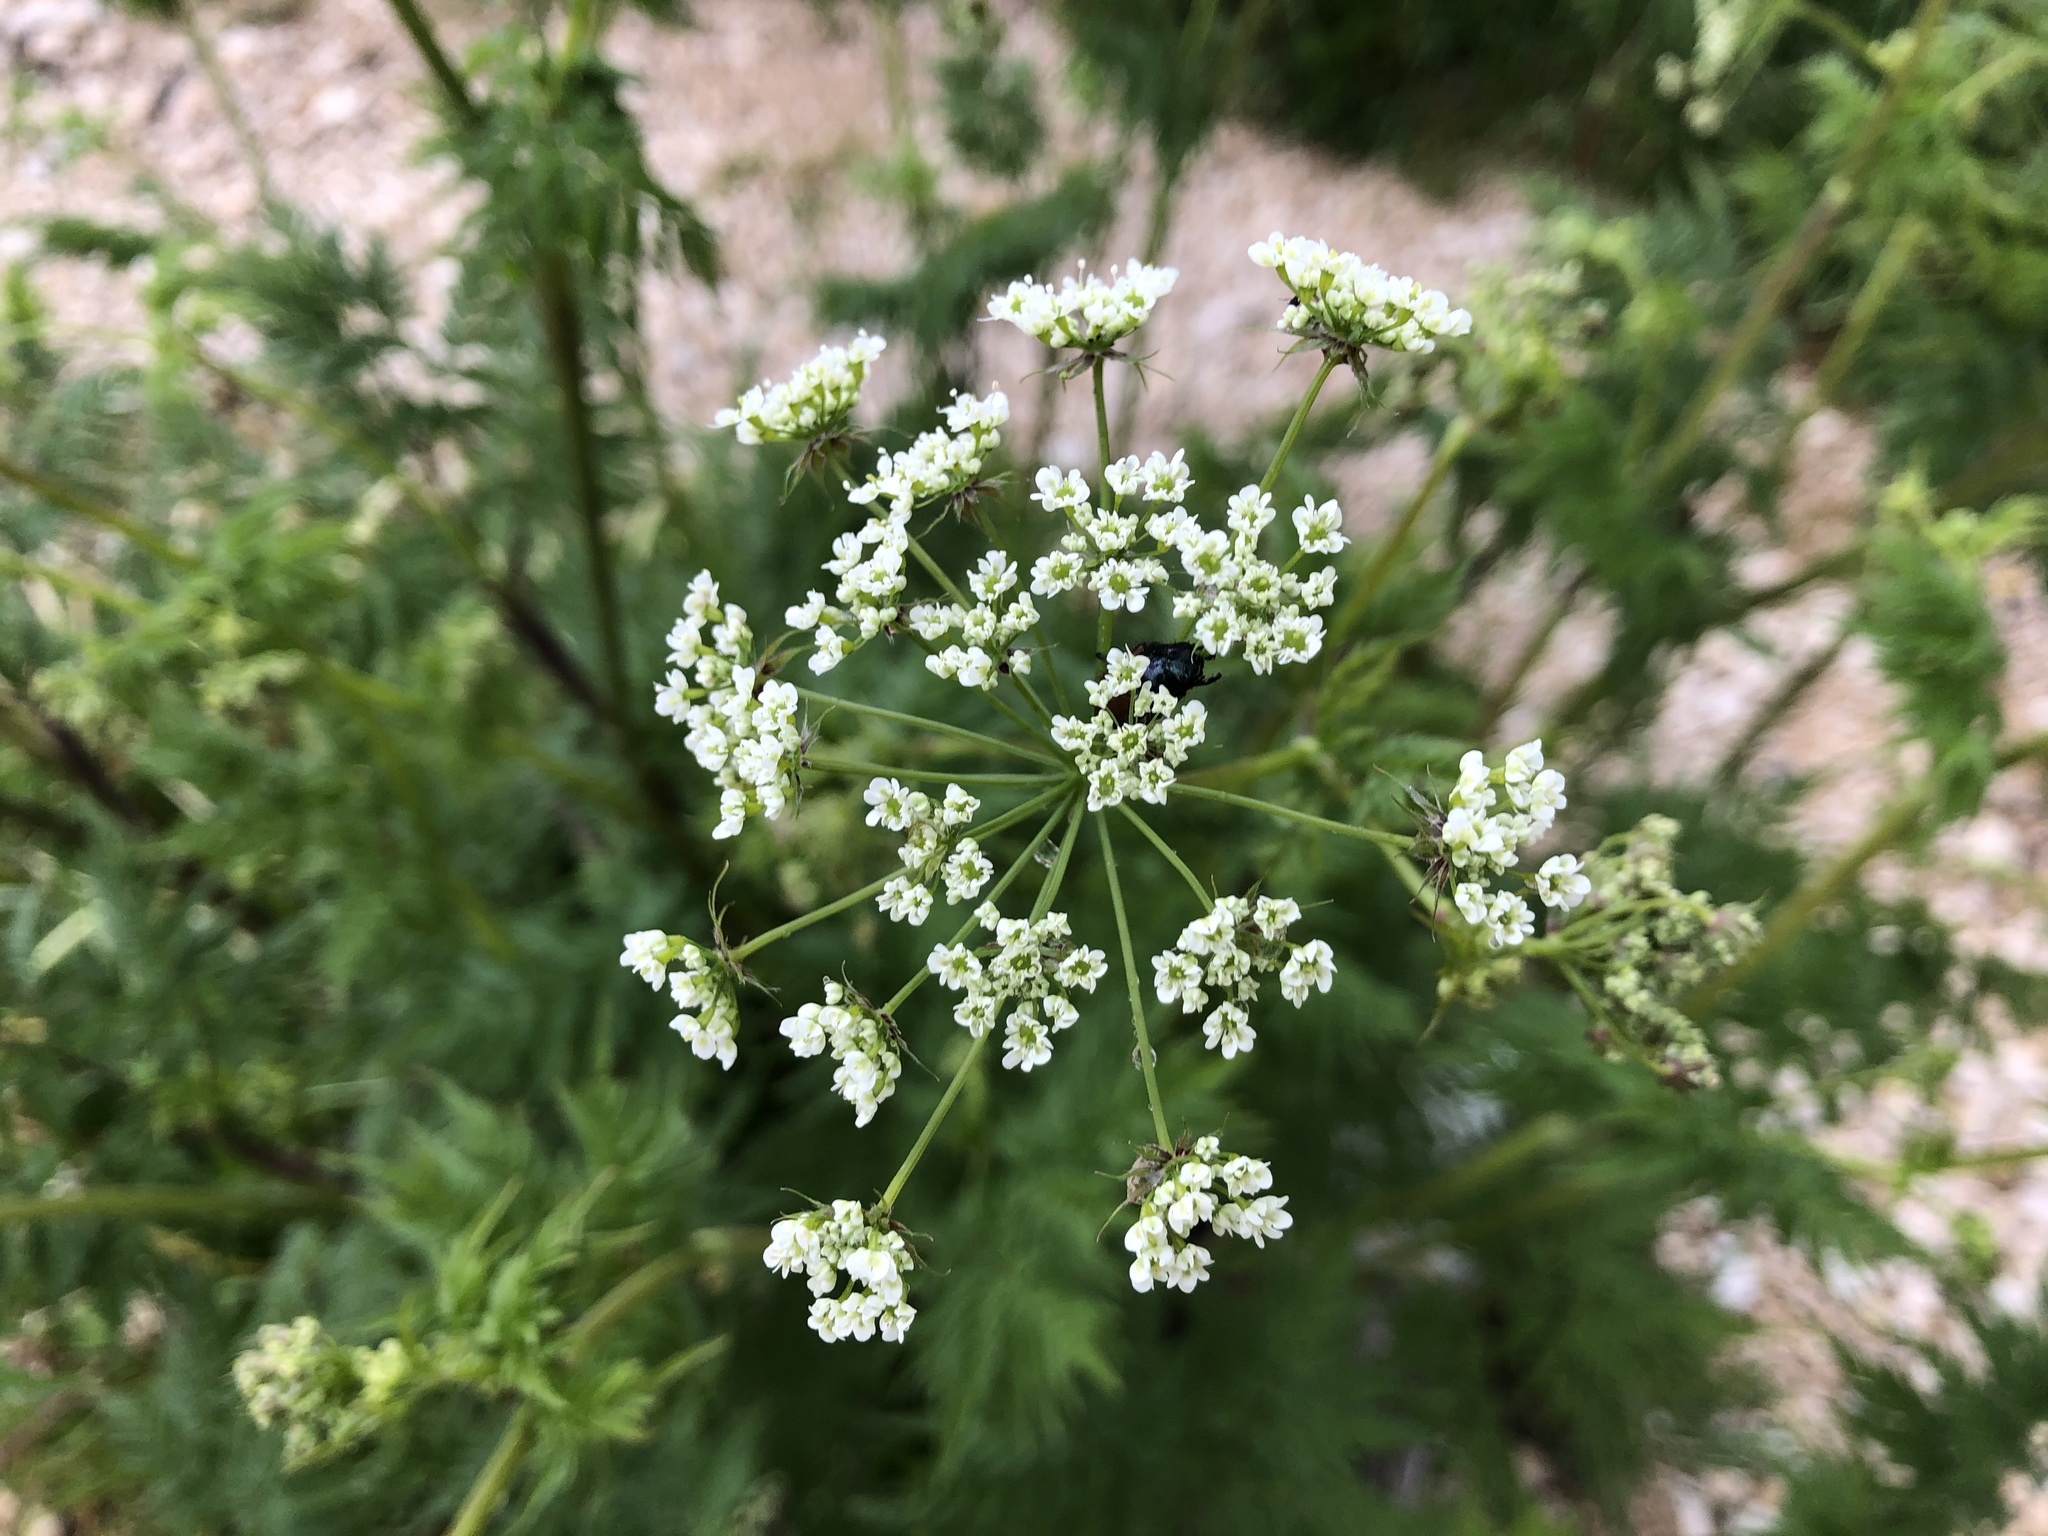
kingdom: Plantae
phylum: Tracheophyta
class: Magnoliopsida
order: Apiales
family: Apiaceae
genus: Chaerophyllum
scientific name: Chaerophyllum aureum
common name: Golden chervil
